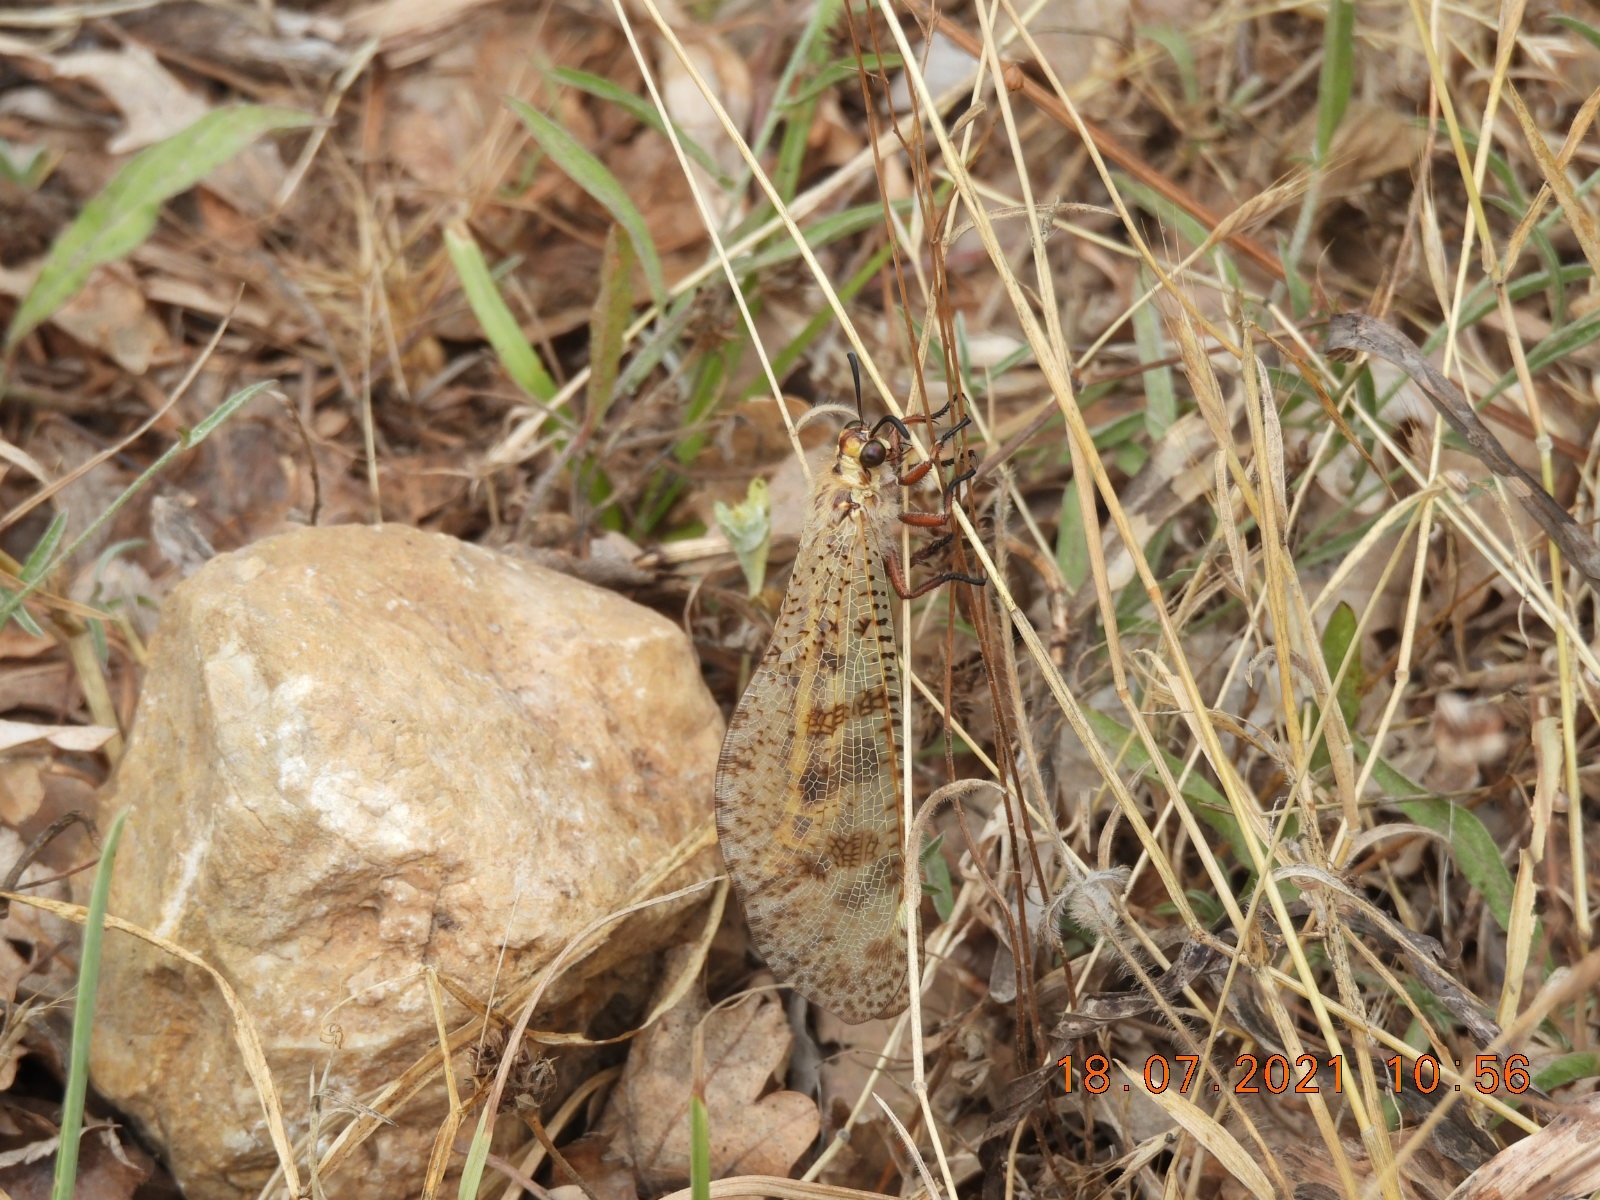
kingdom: Animalia
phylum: Arthropoda
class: Insecta
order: Neuroptera
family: Myrmeleontidae
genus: Palpares
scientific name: Palpares libelluloides
